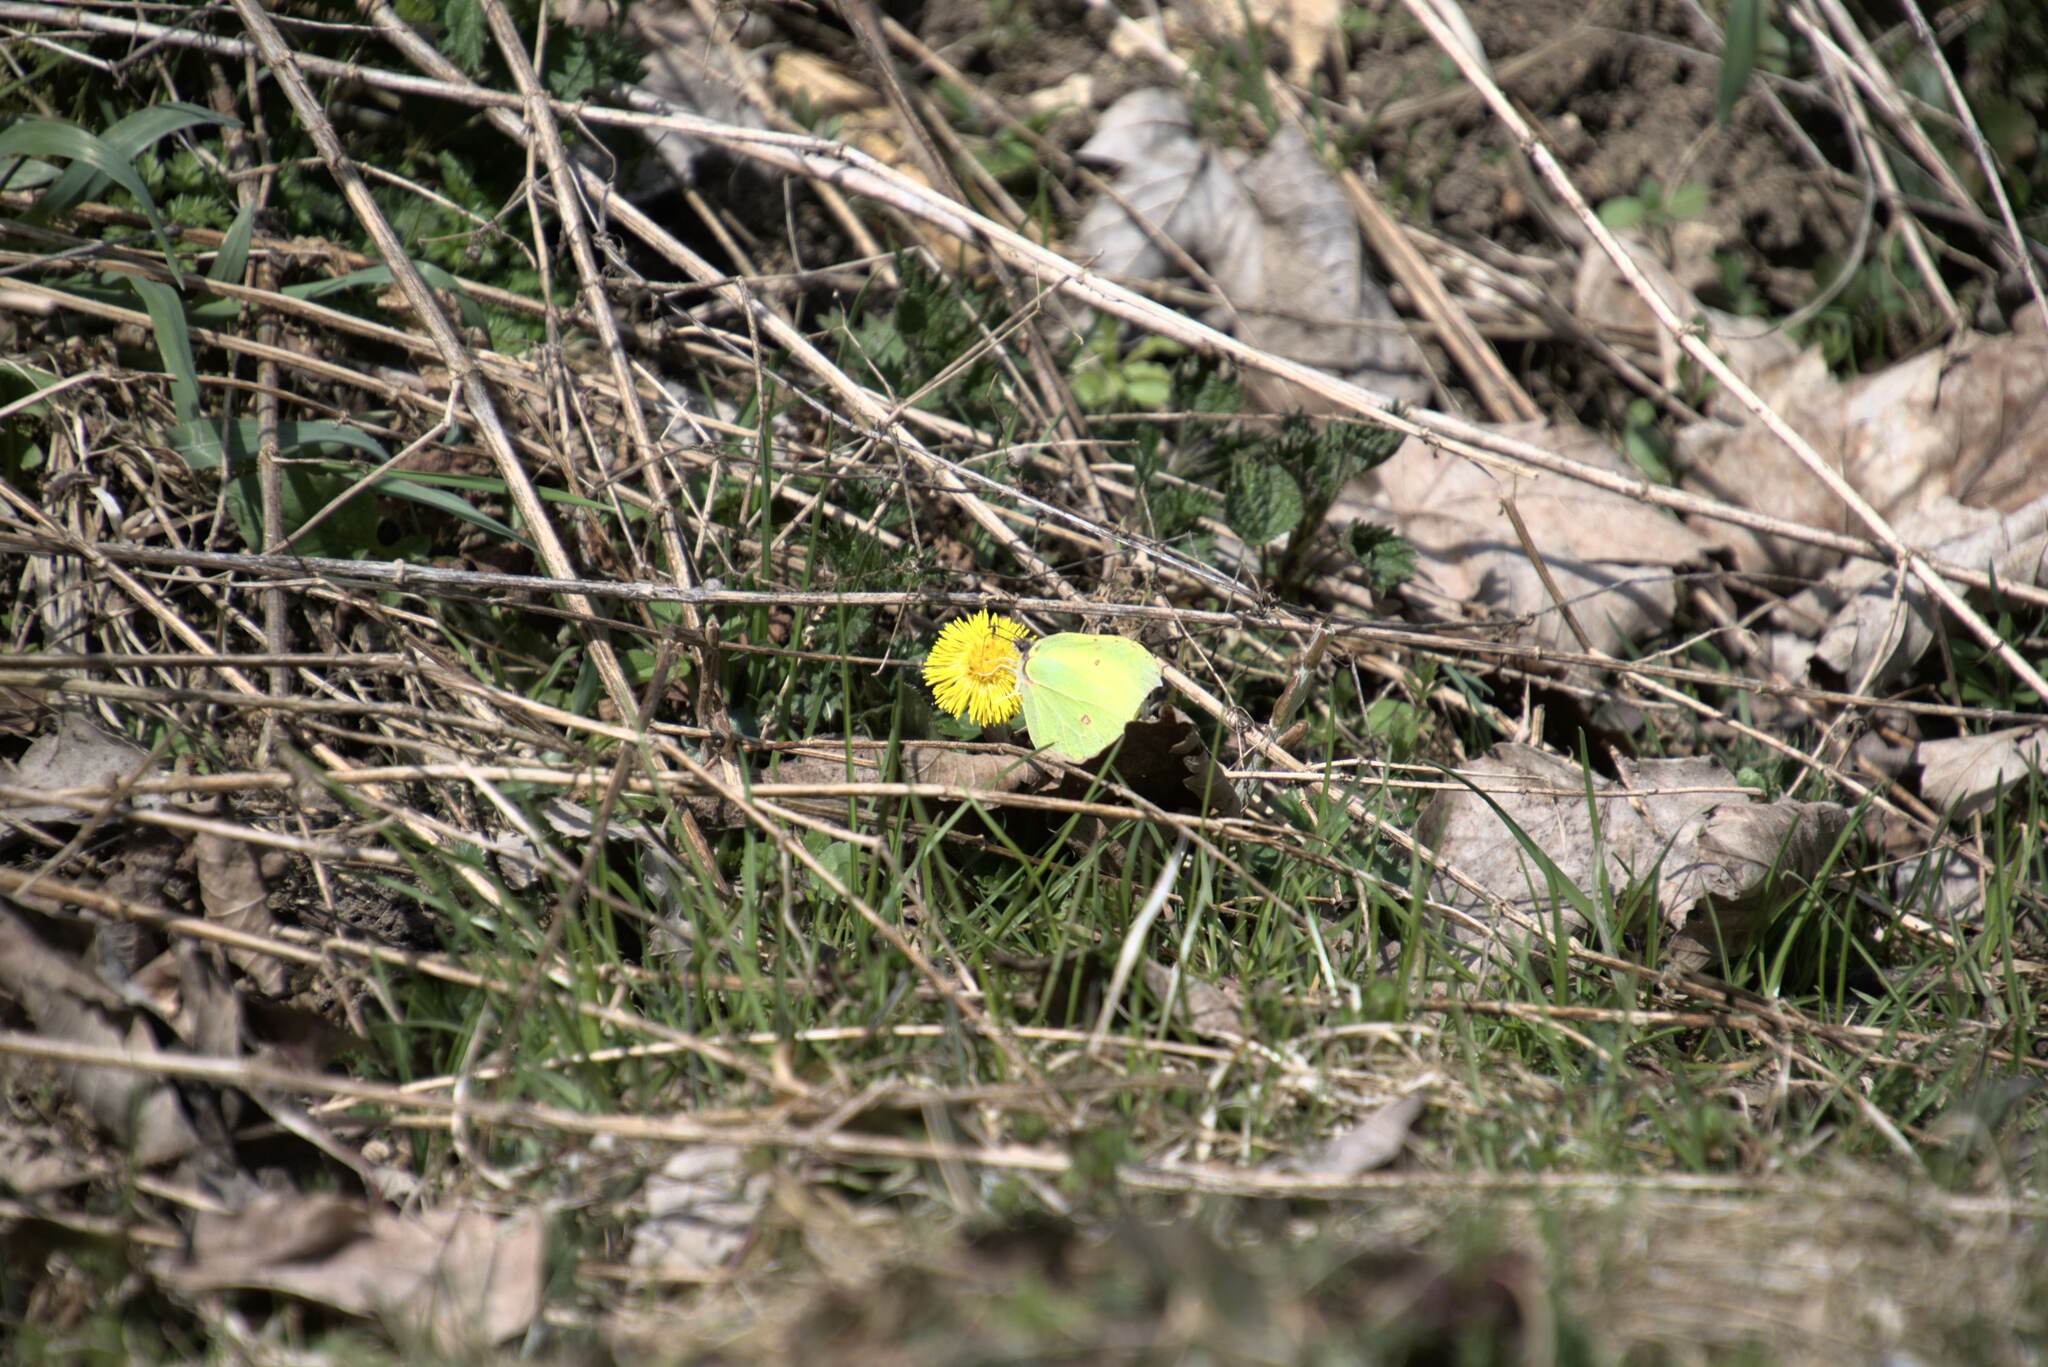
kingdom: Animalia
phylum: Arthropoda
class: Insecta
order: Lepidoptera
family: Pieridae
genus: Gonepteryx
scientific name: Gonepteryx rhamni
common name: Brimstone
